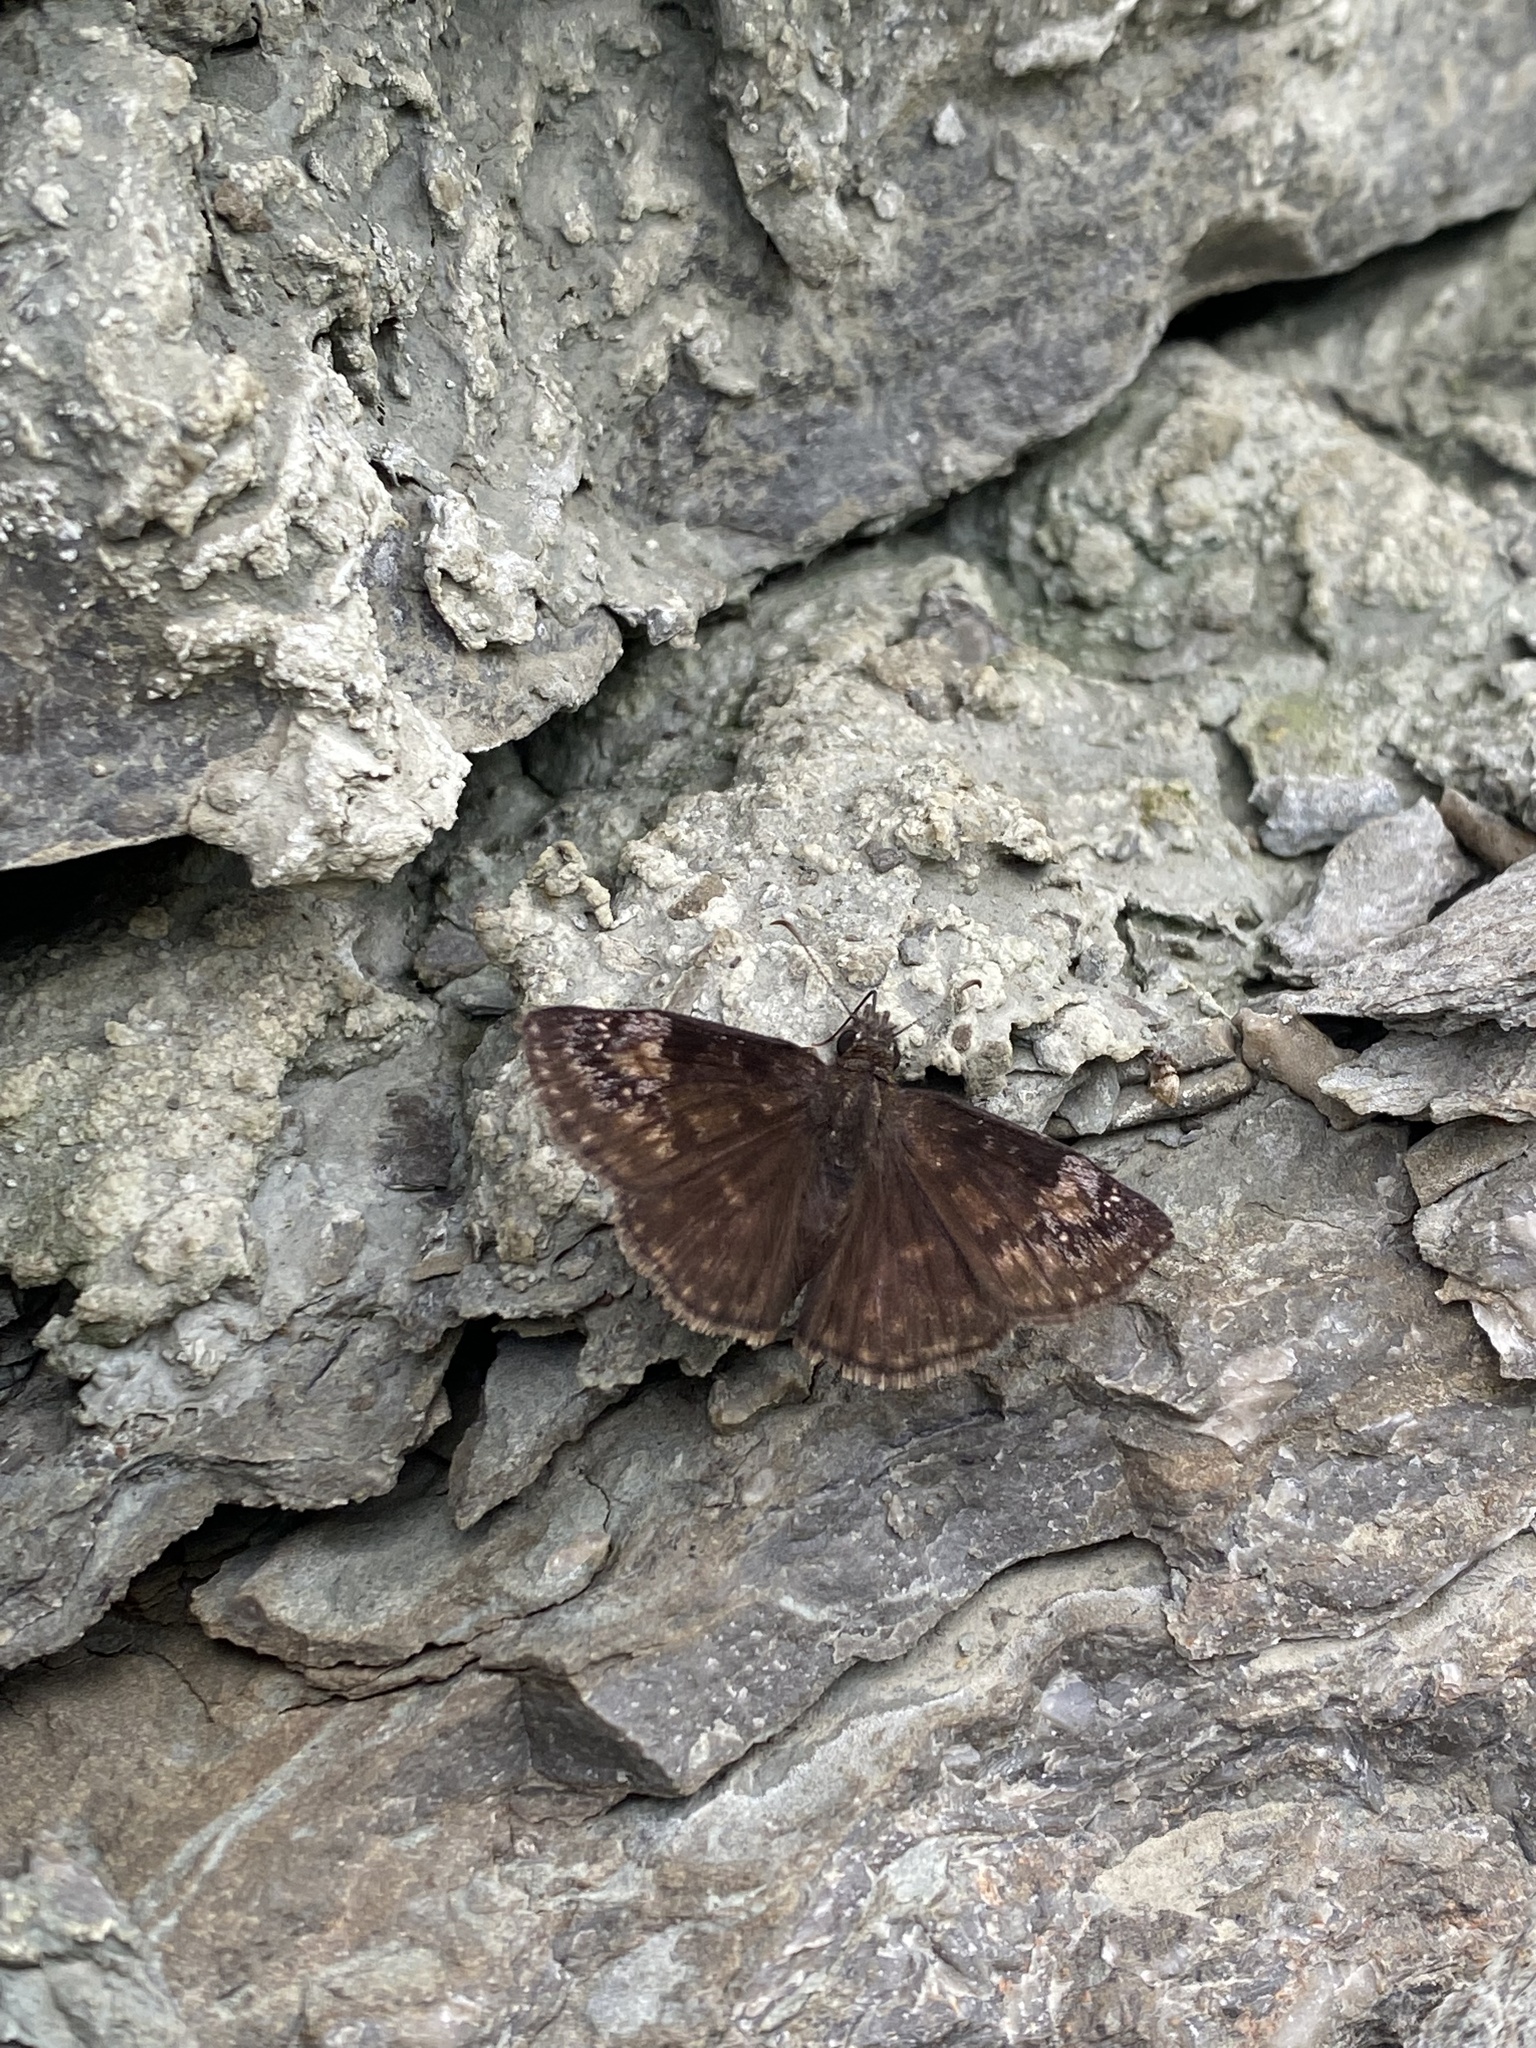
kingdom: Animalia
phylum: Arthropoda
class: Insecta
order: Lepidoptera
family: Hesperiidae
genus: Erynnis
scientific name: Erynnis baptisiae
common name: Wild indigo duskywing
